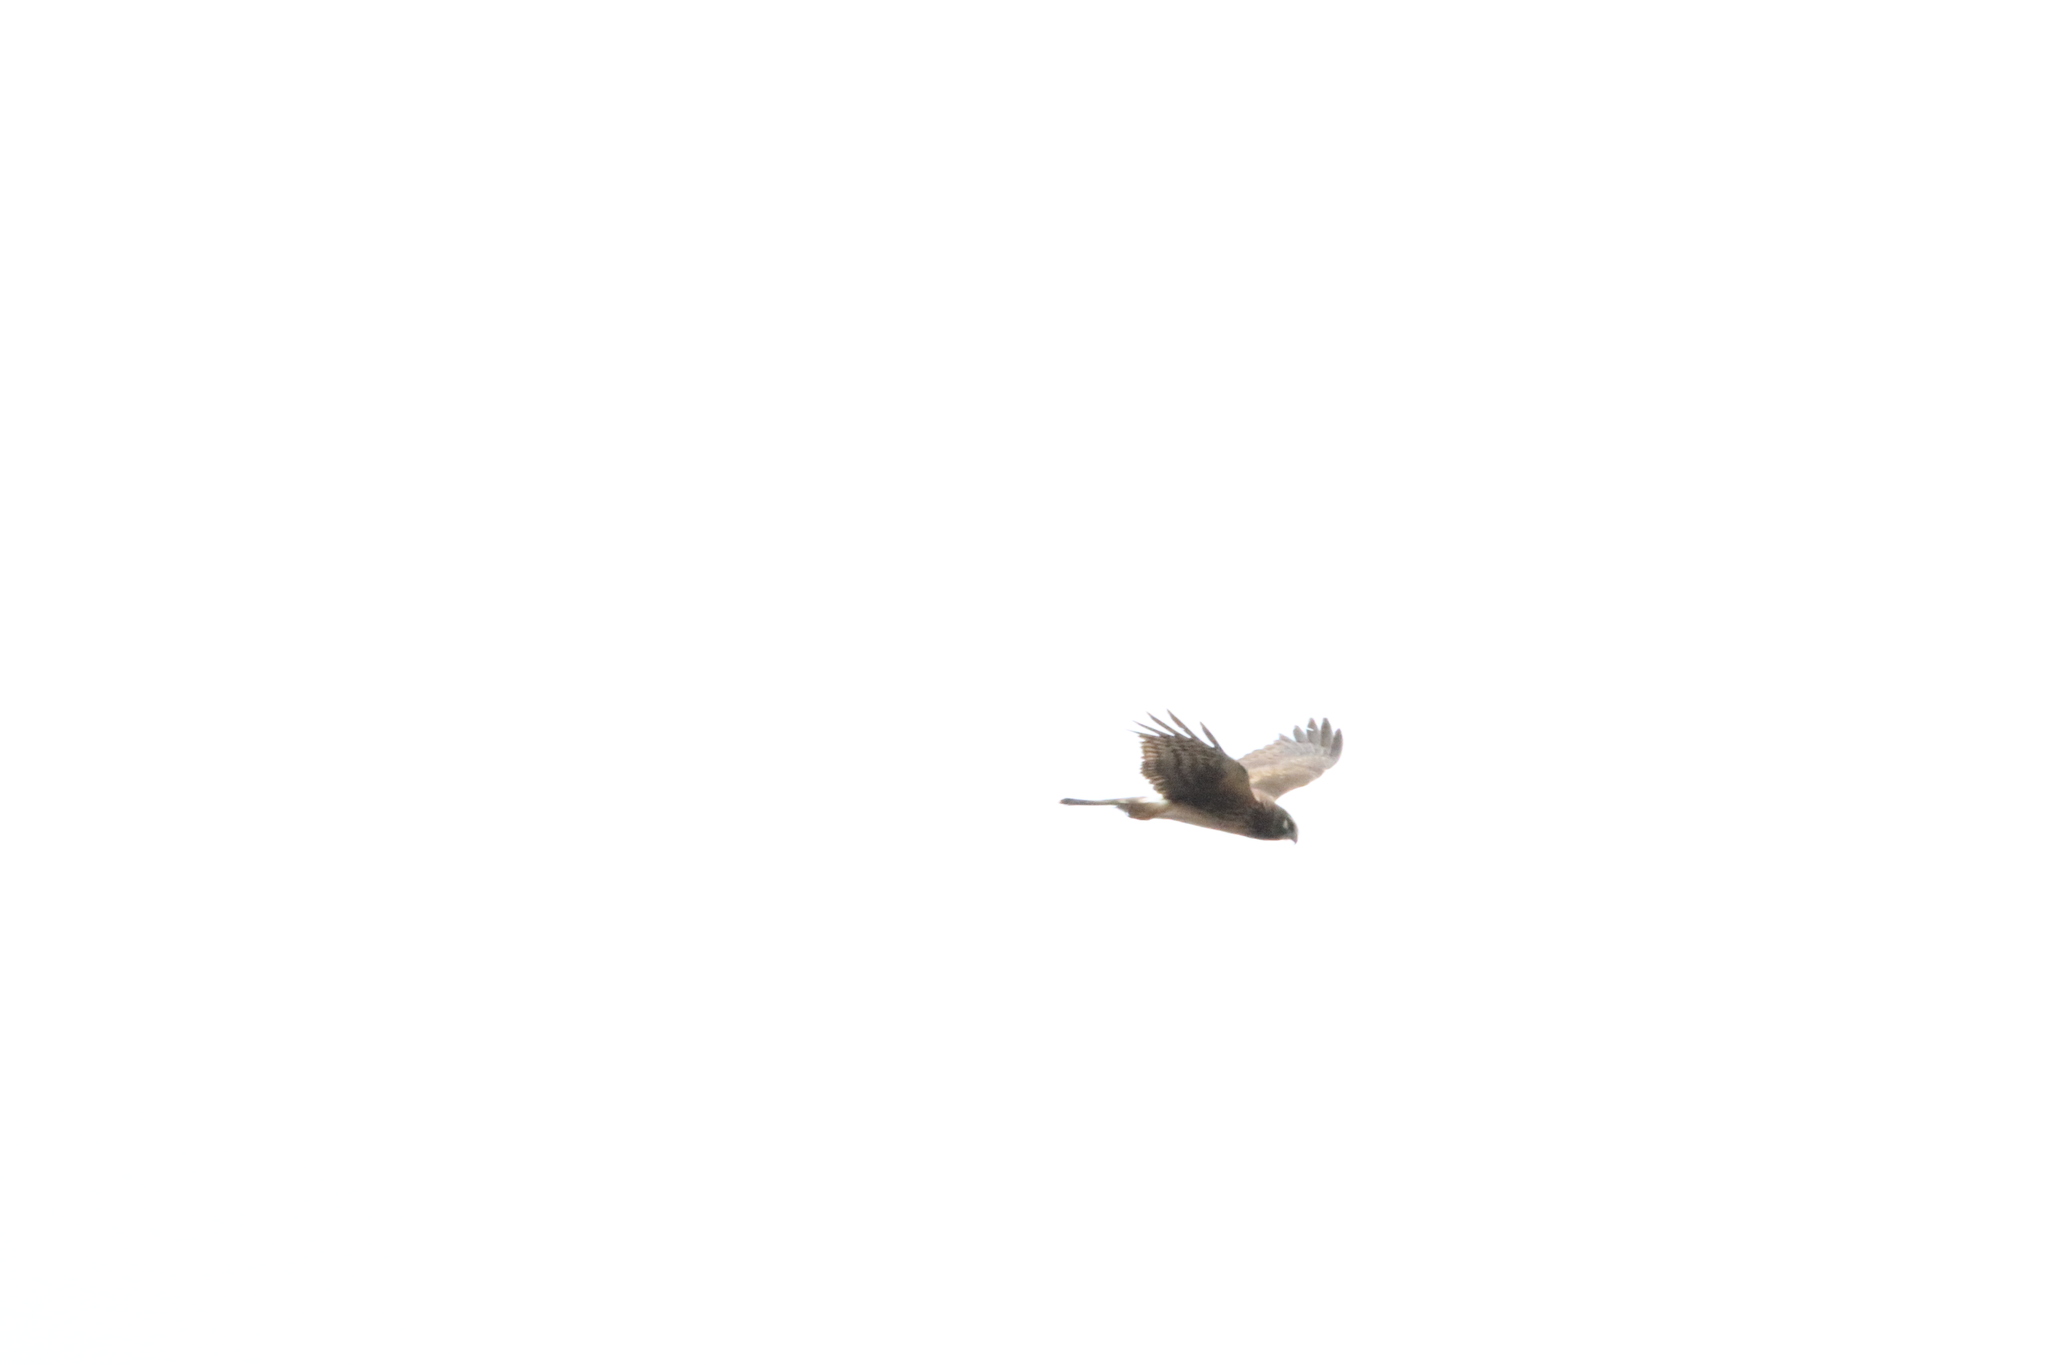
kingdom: Animalia
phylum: Chordata
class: Aves
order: Accipitriformes
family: Accipitridae
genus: Circus
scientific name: Circus cyaneus
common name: Hen harrier
